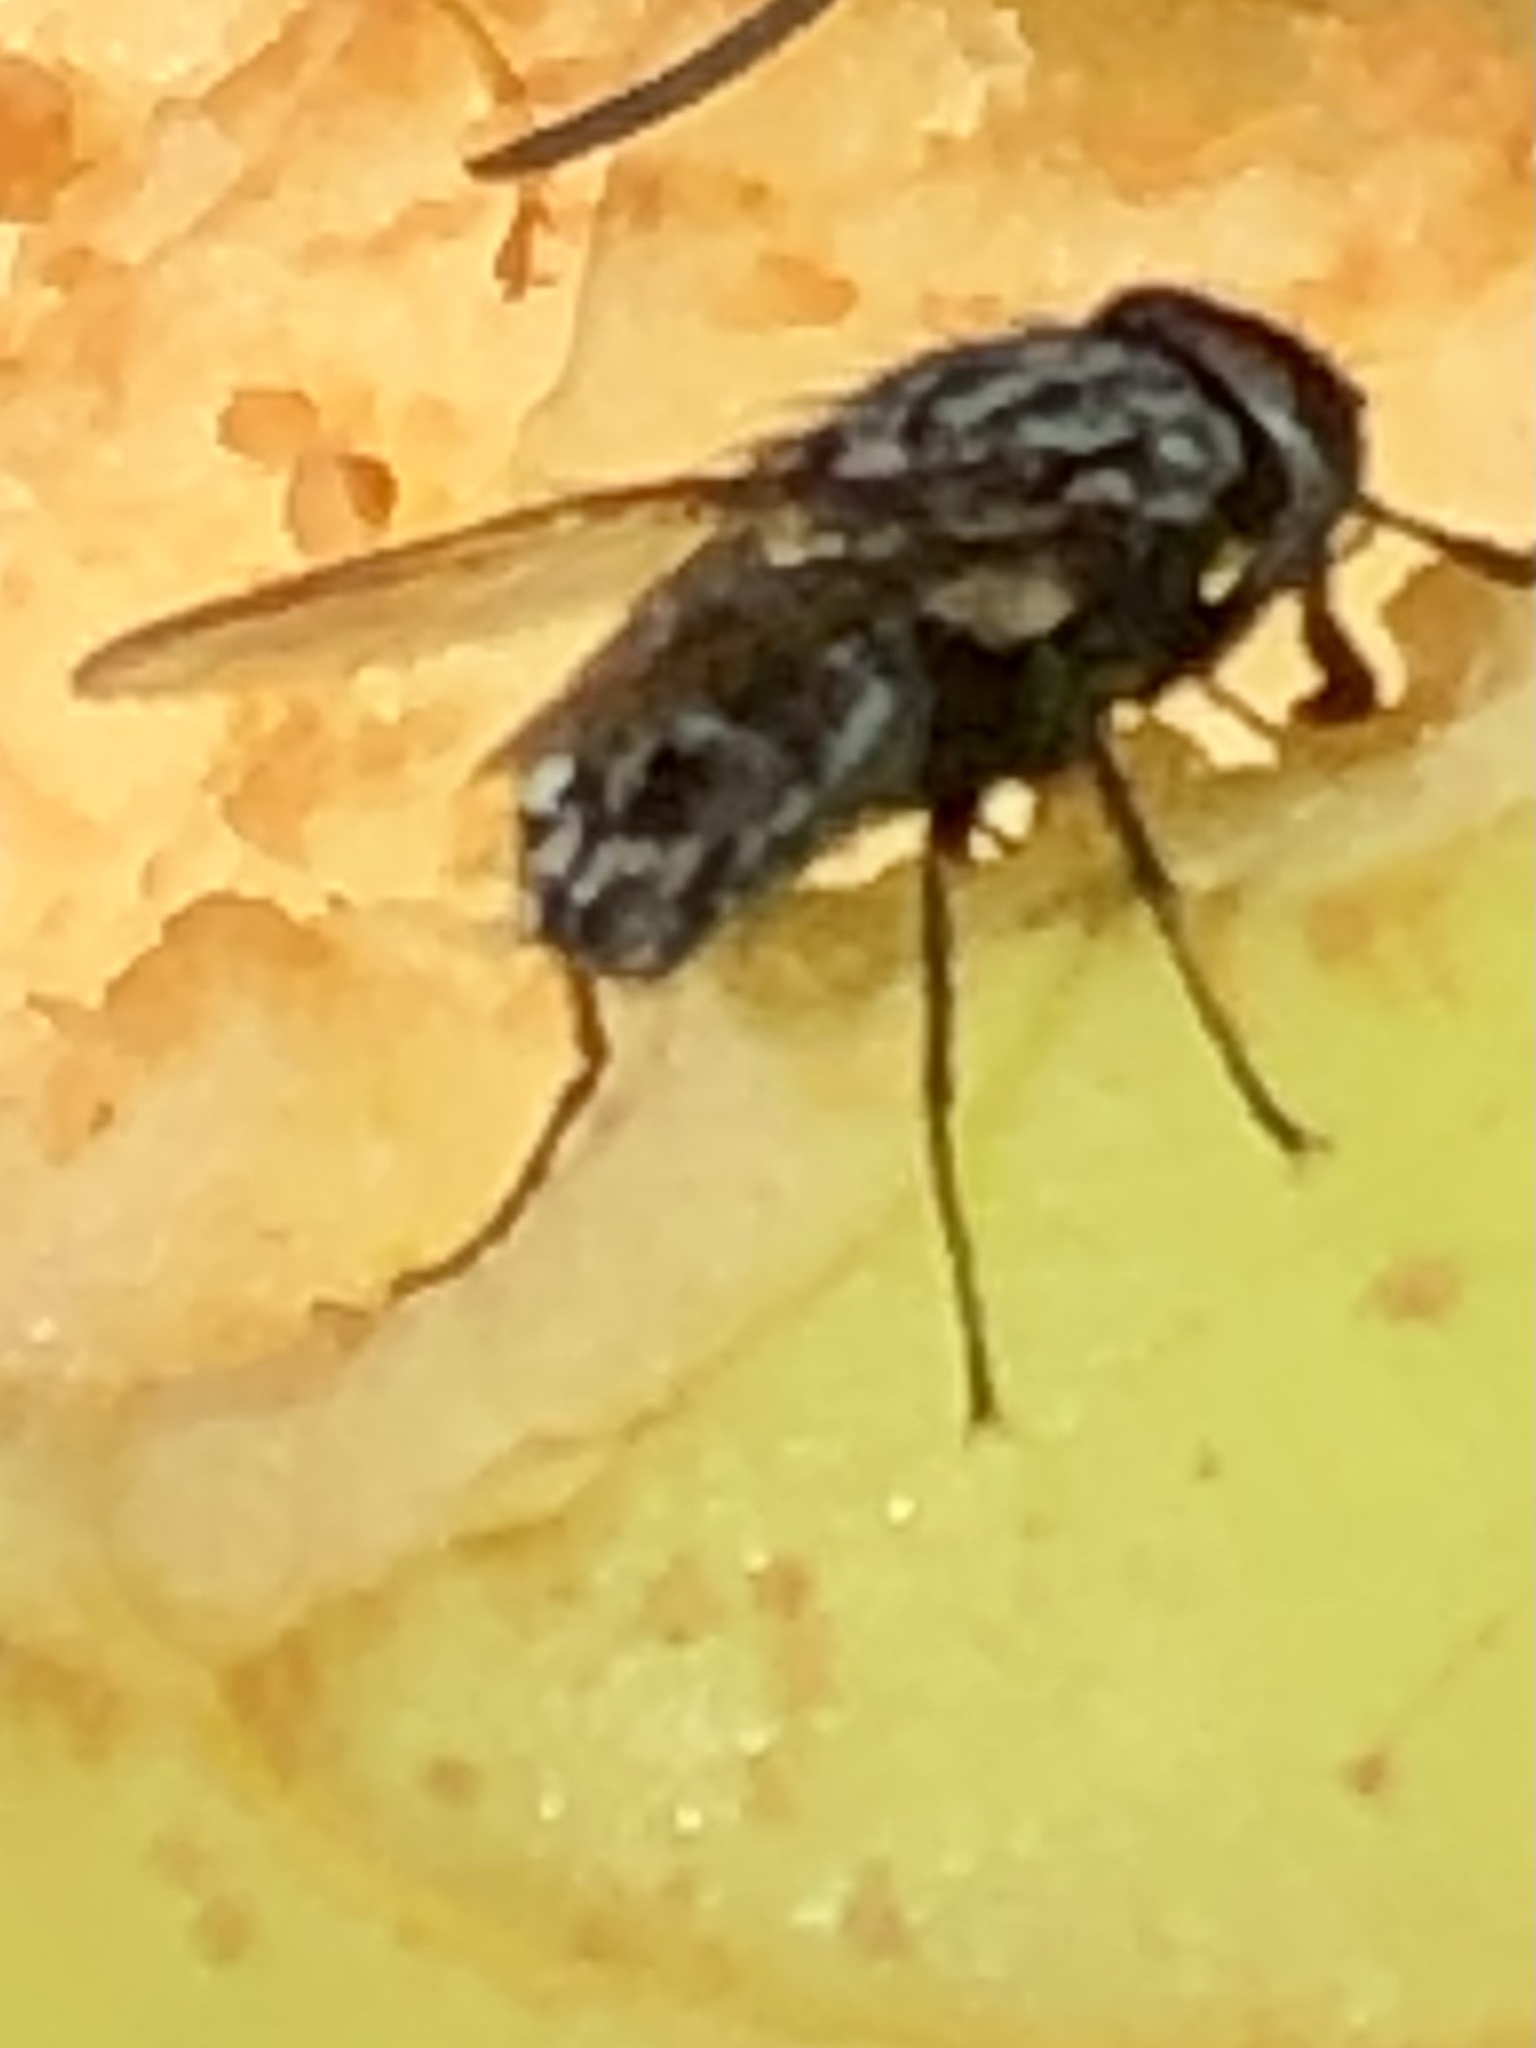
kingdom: Animalia
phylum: Arthropoda
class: Insecta
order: Diptera
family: Muscidae
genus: Stomoxys
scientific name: Stomoxys calcitrans
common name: Stable fly
